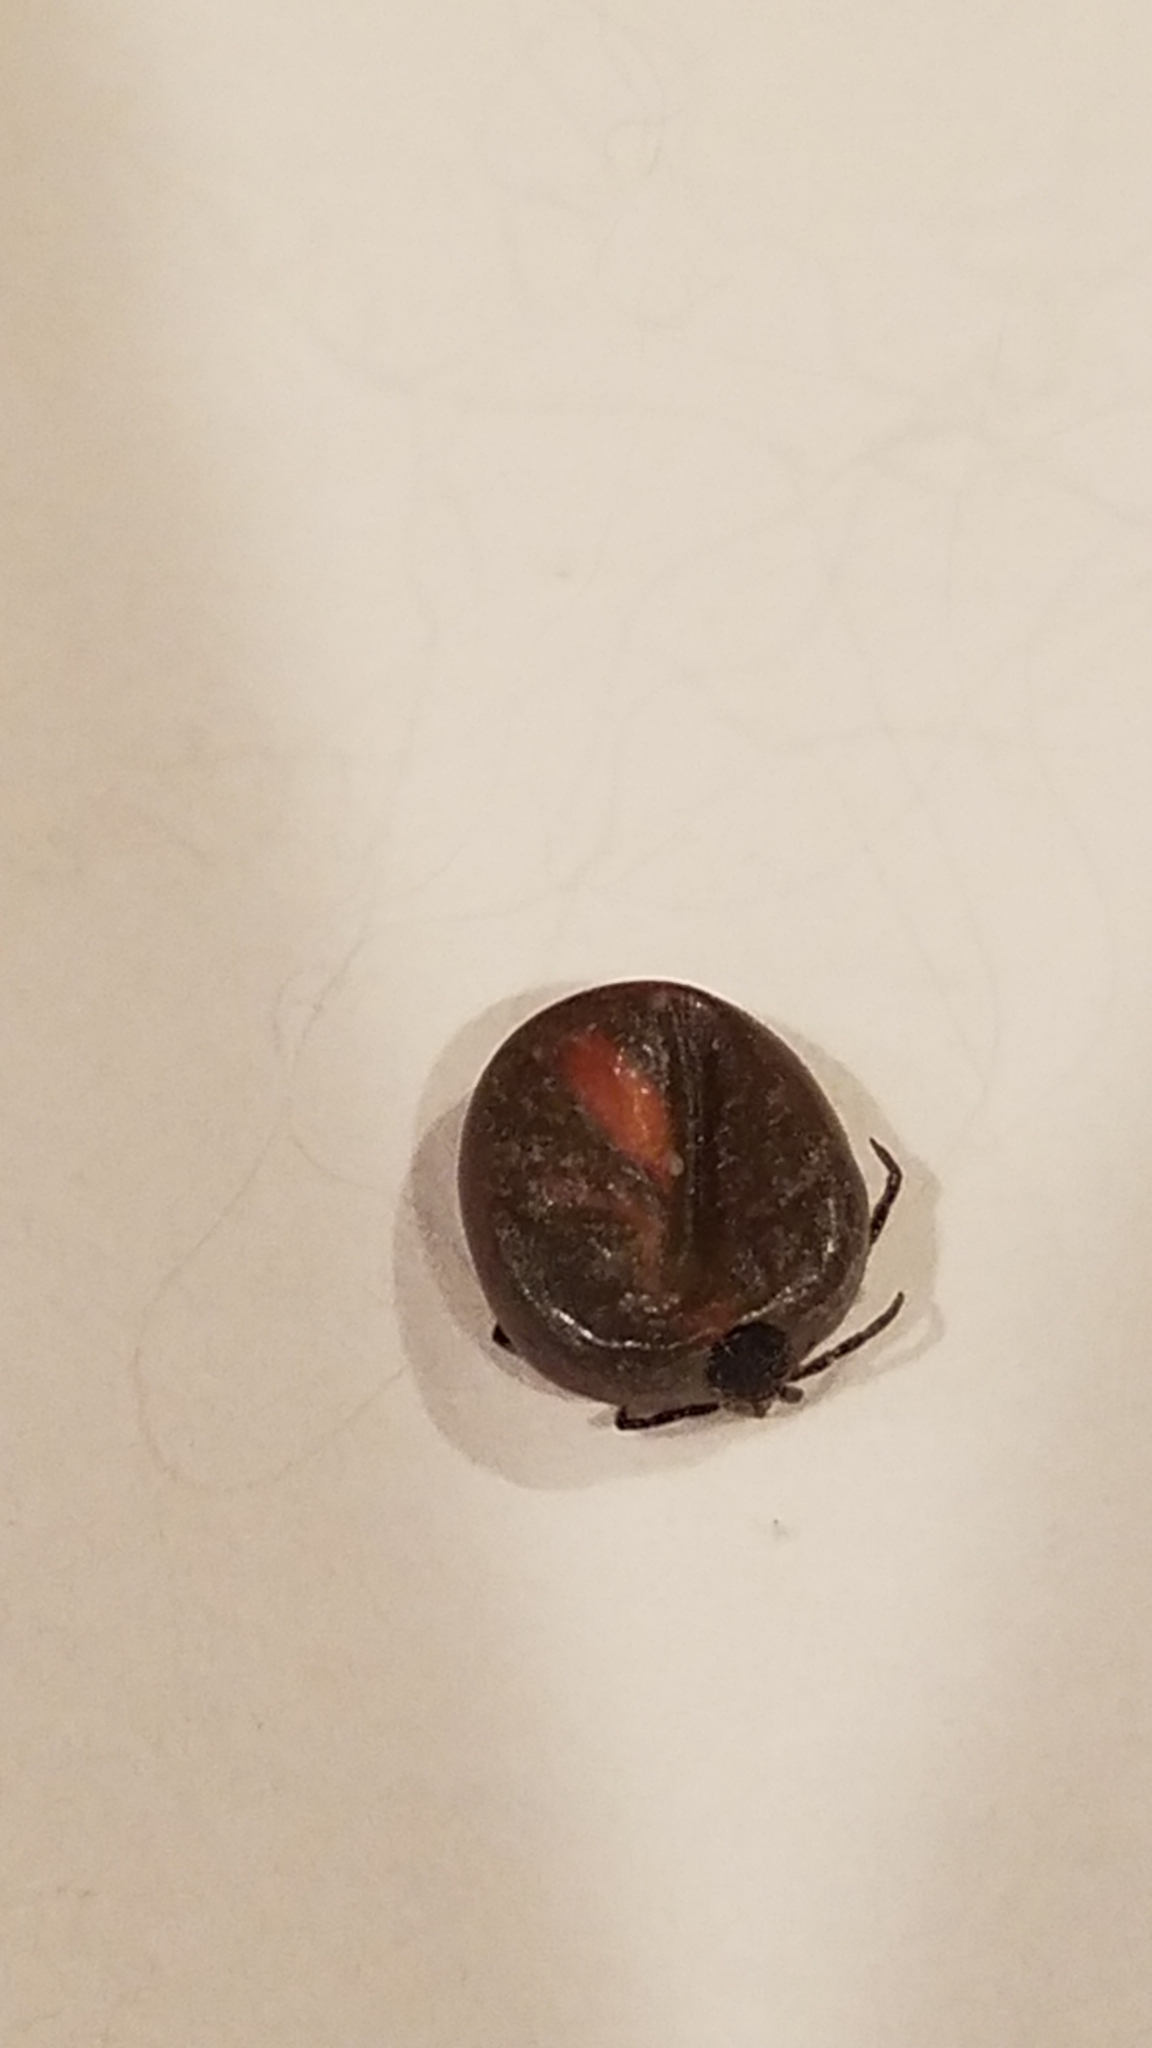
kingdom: Animalia
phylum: Arthropoda
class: Arachnida
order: Ixodida
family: Ixodidae
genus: Ixodes
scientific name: Ixodes scapularis
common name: Black legged tick
